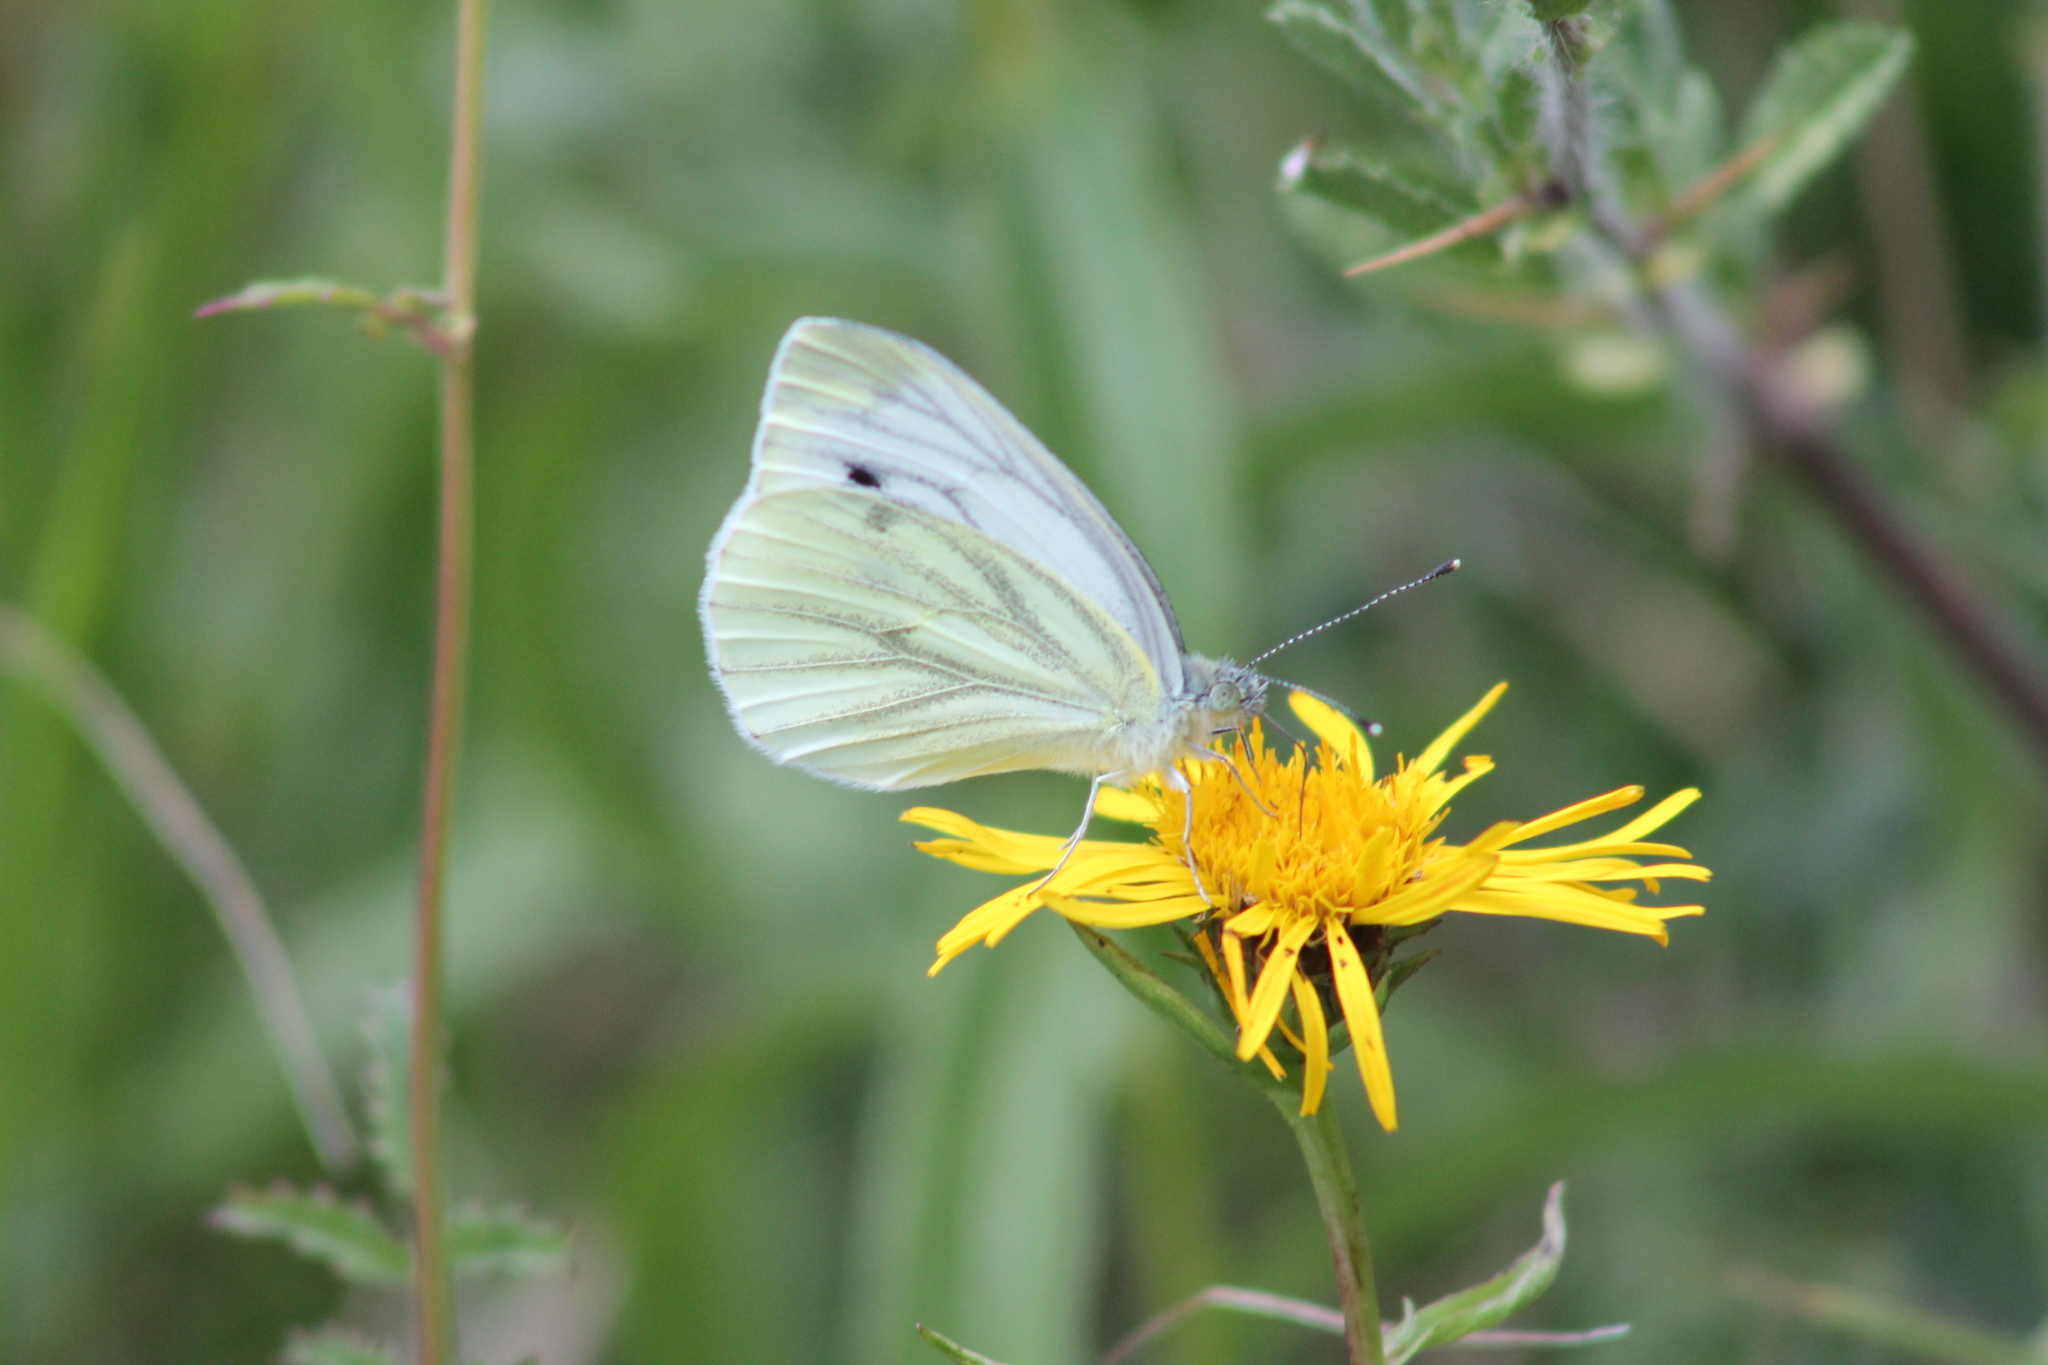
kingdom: Animalia
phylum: Arthropoda
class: Insecta
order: Lepidoptera
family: Pieridae
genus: Pieris
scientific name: Pieris napi
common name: Green-veined white
